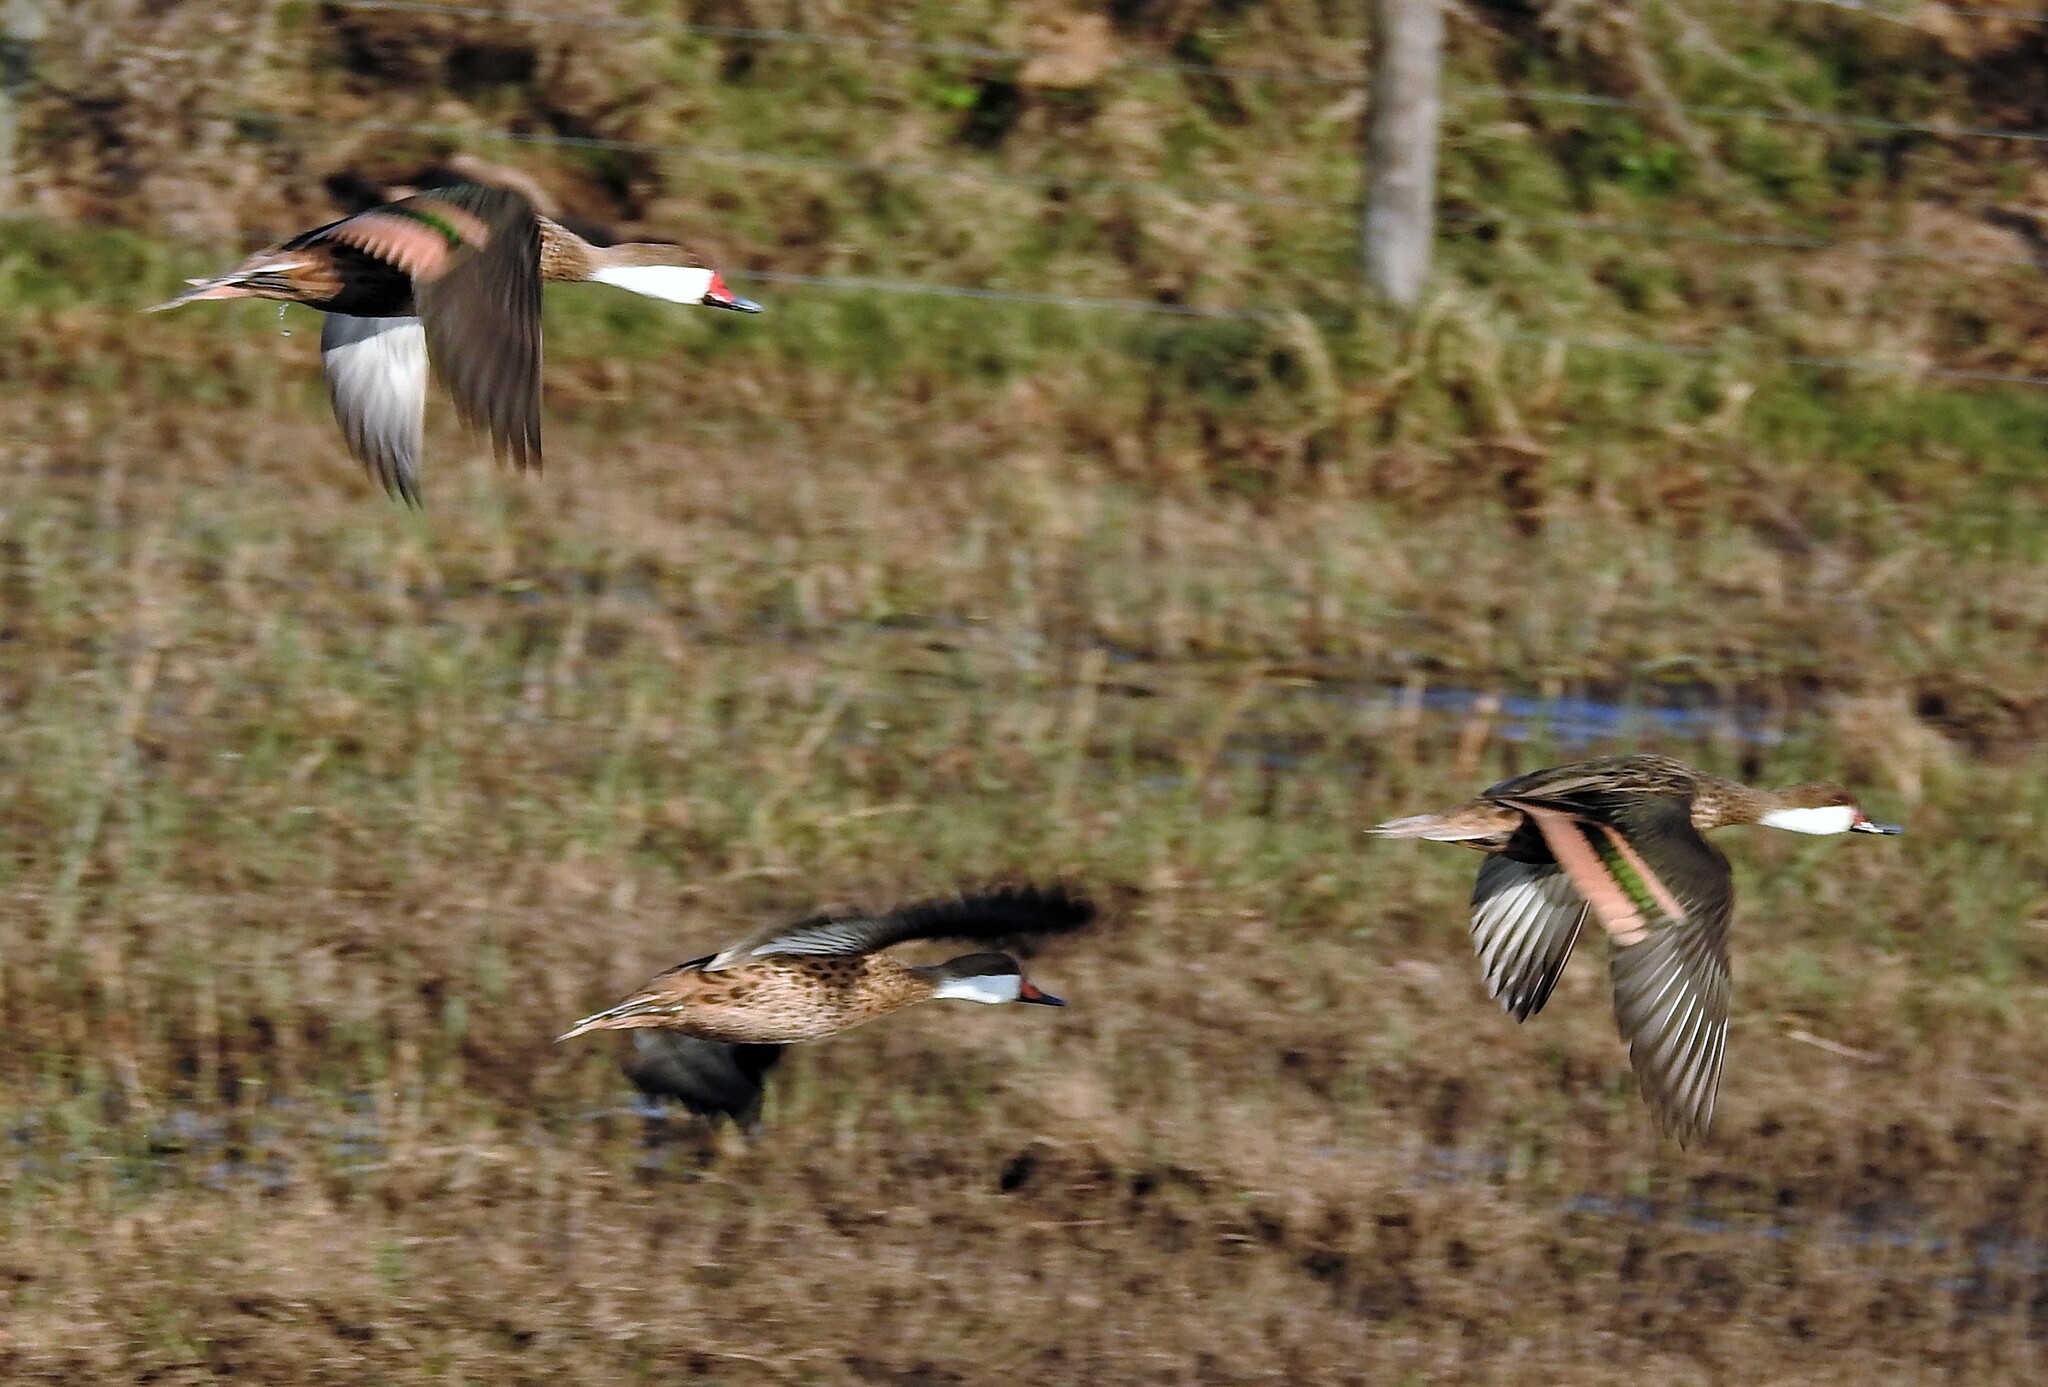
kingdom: Animalia
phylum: Chordata
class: Aves
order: Anseriformes
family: Anatidae
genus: Anas
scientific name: Anas bahamensis
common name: White-cheeked pintail
